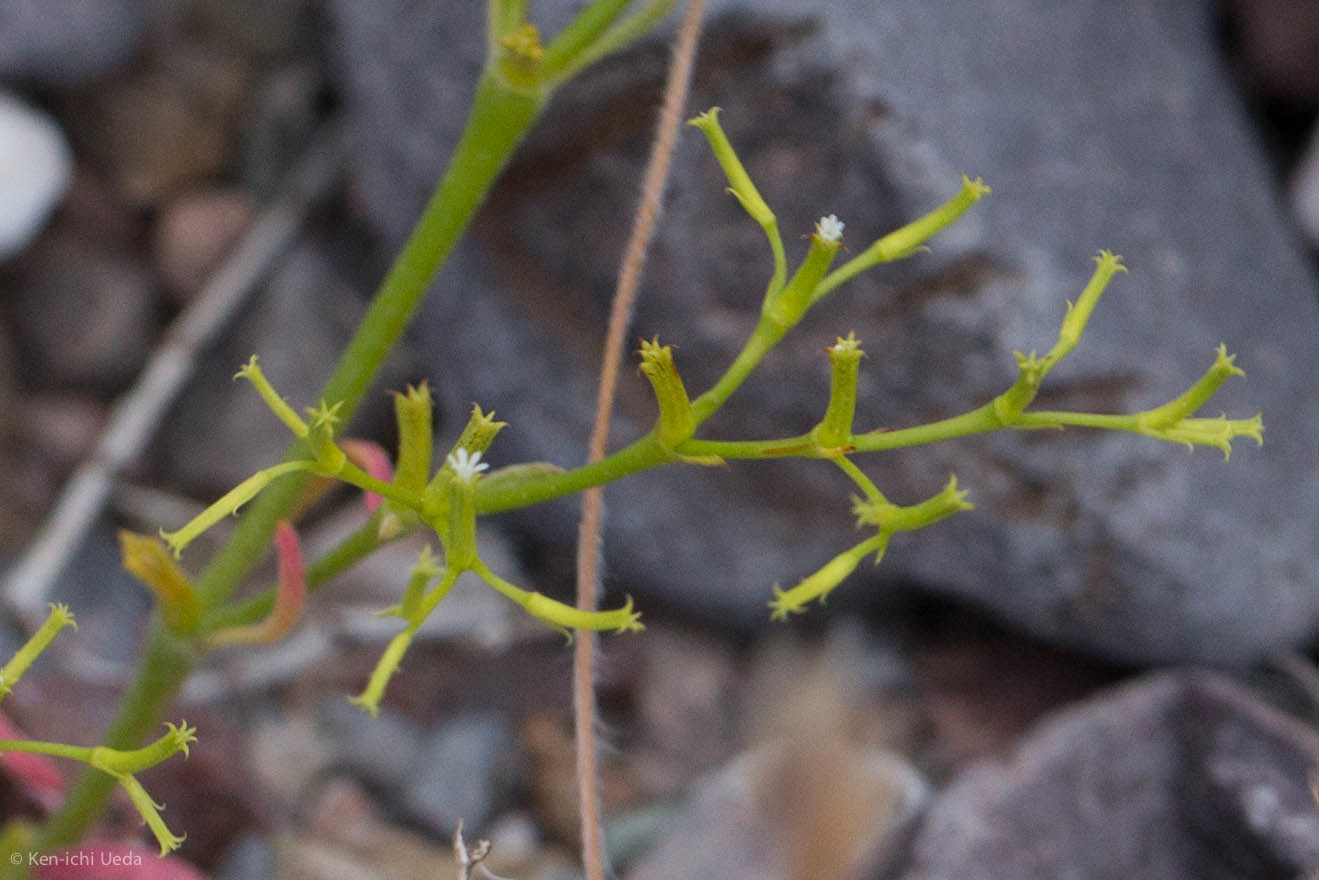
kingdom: Plantae
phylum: Tracheophyta
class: Magnoliopsida
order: Caryophyllales
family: Polygonaceae
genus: Chorizanthe
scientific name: Chorizanthe brevicornu
